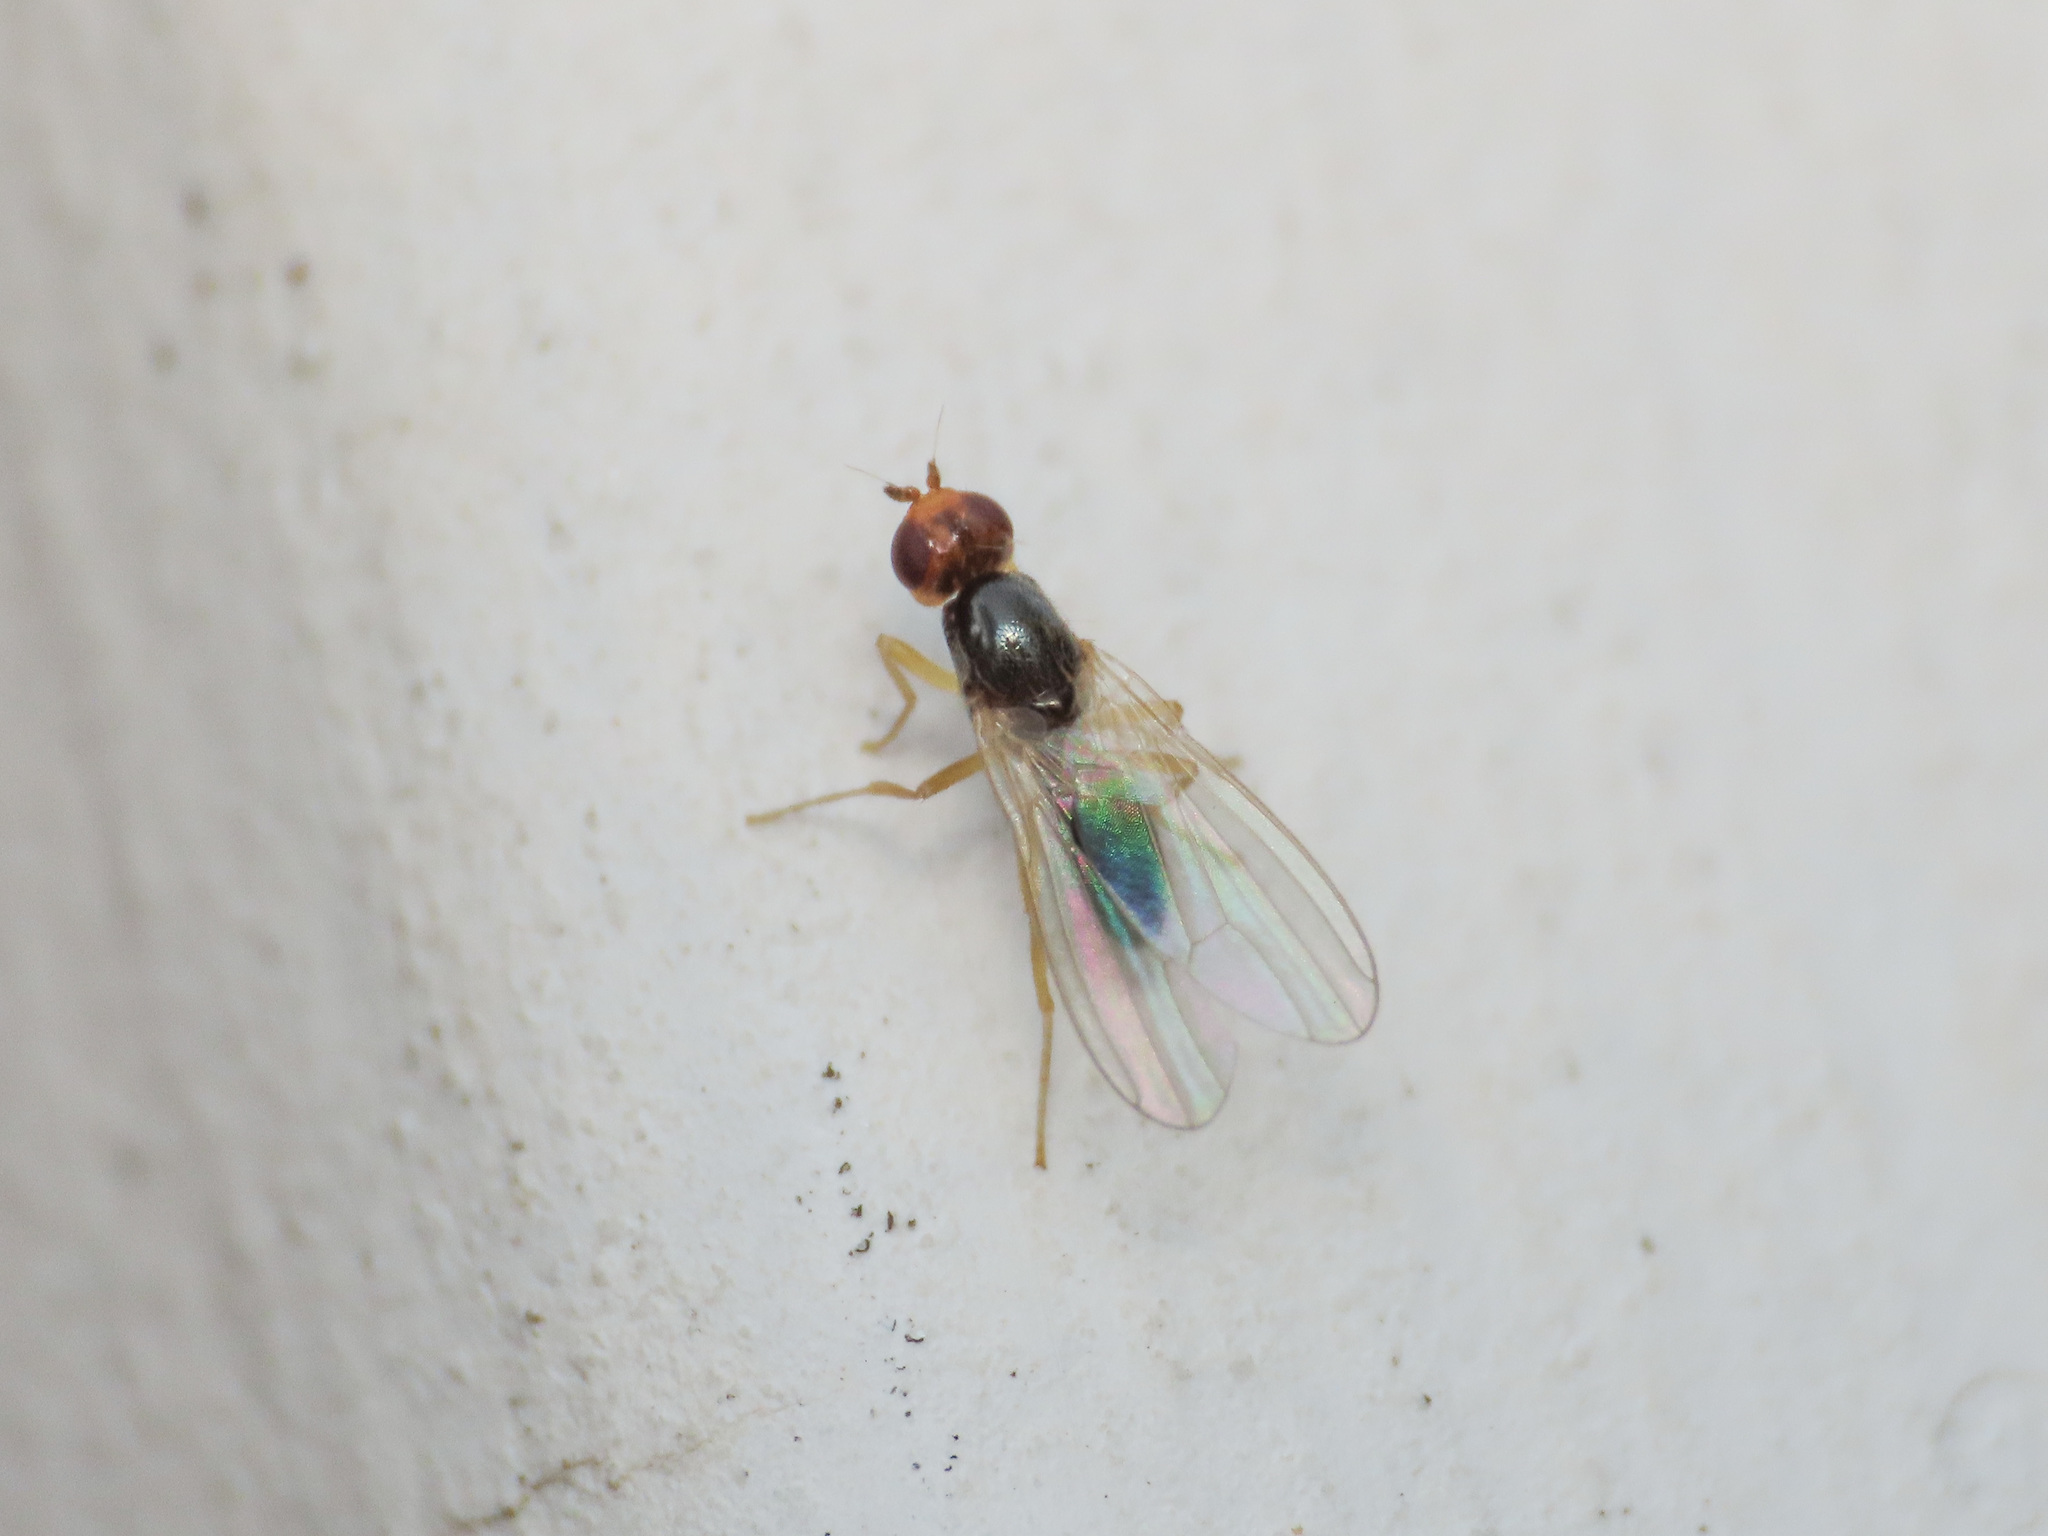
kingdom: Animalia
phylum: Arthropoda
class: Insecta
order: Diptera
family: Psilidae
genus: Chamaepsila
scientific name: Chamaepsila
